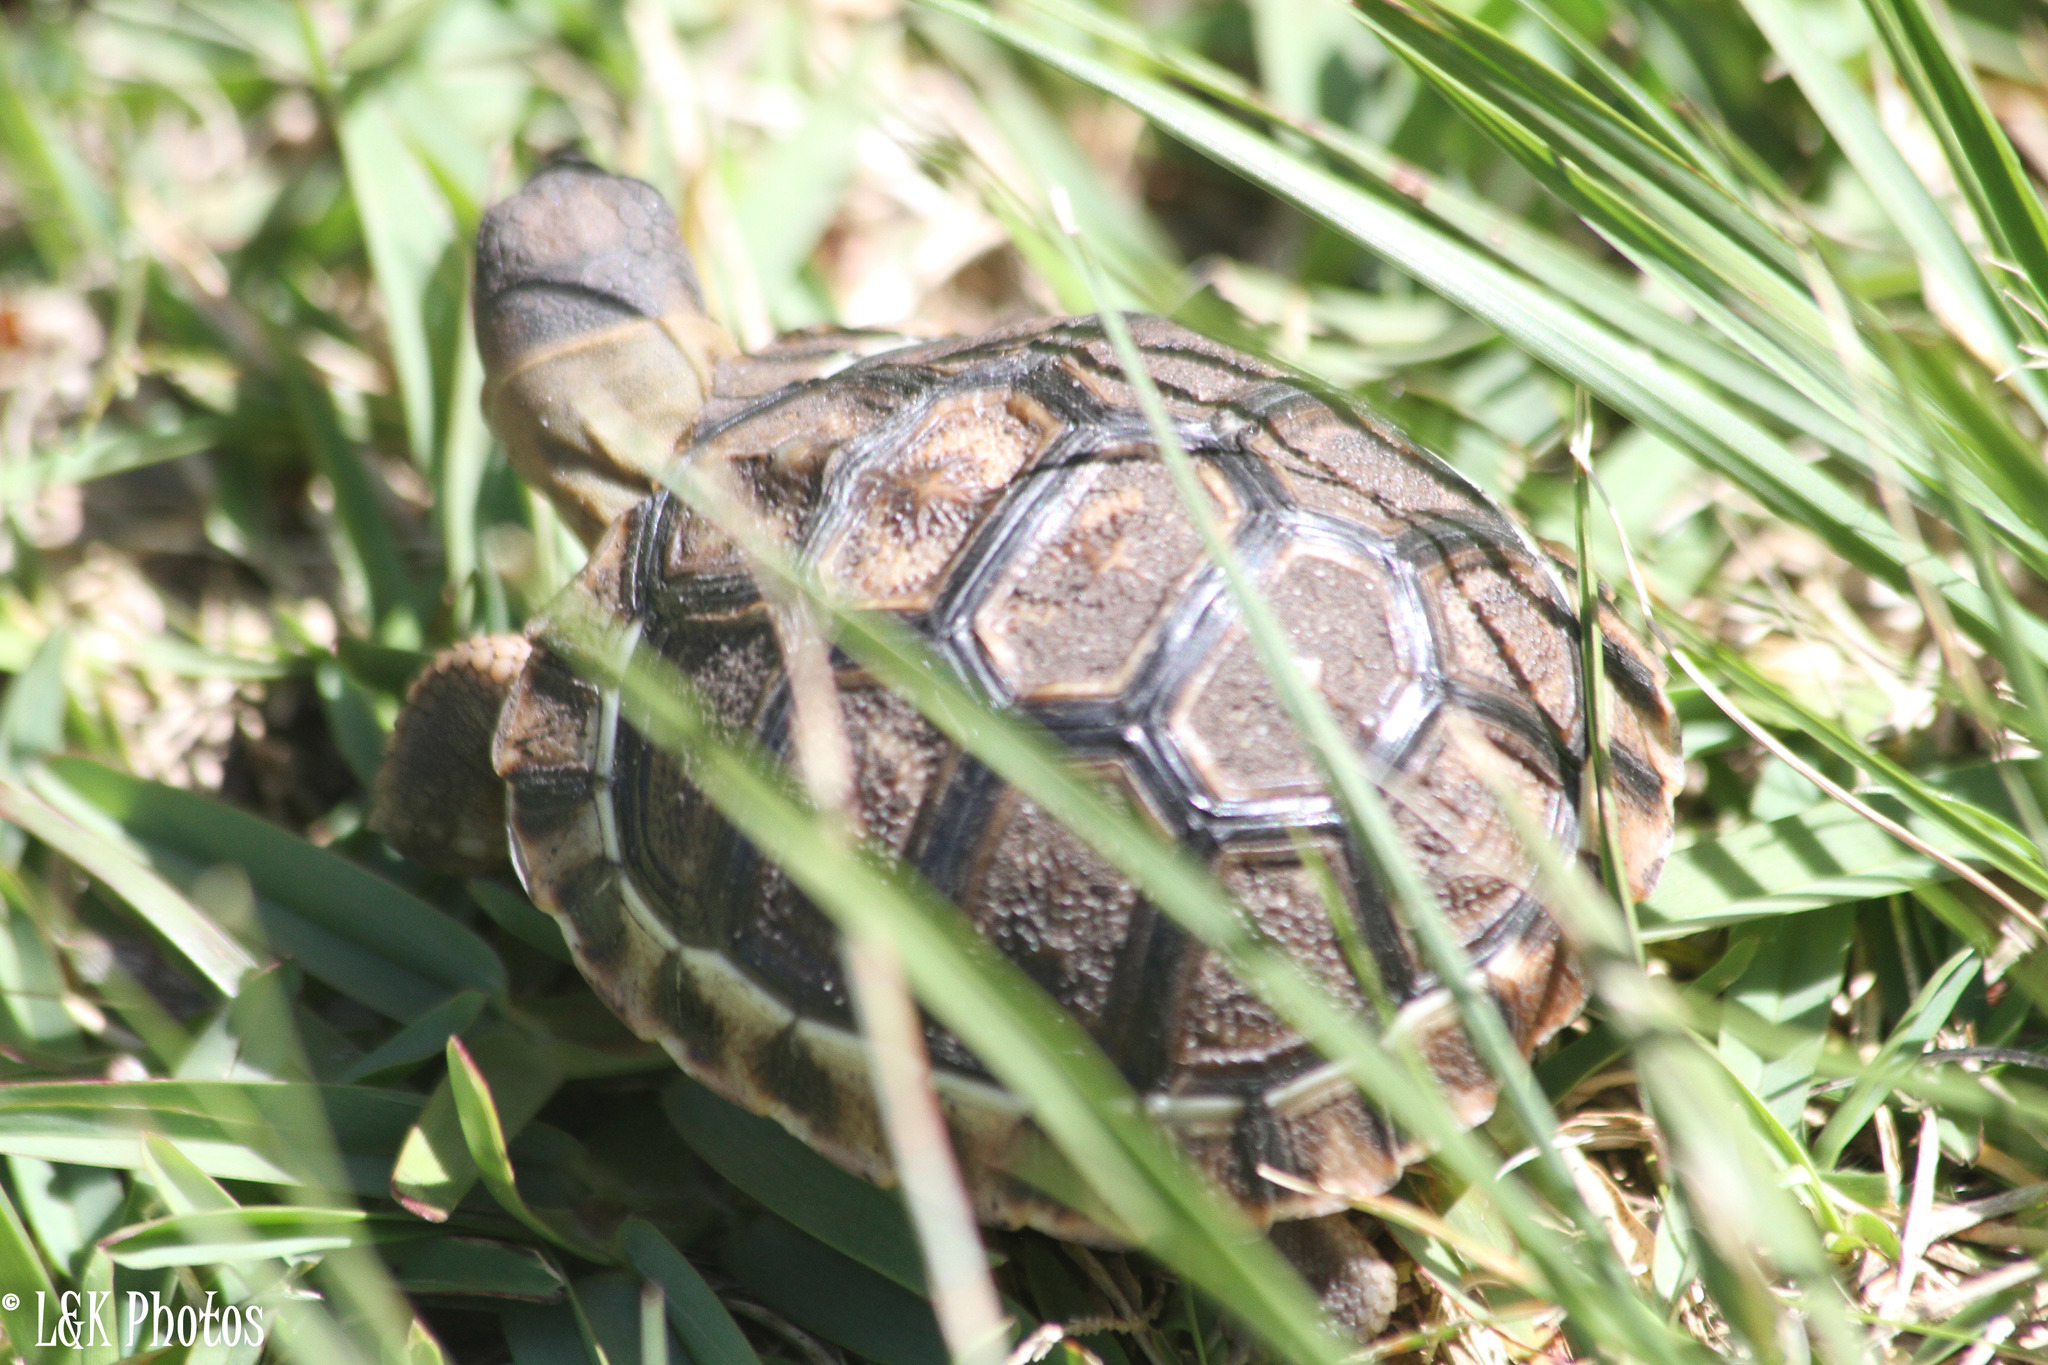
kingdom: Animalia
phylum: Chordata
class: Testudines
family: Testudinidae
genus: Chersina
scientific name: Chersina angulata
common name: South african bowsprit tortoise
